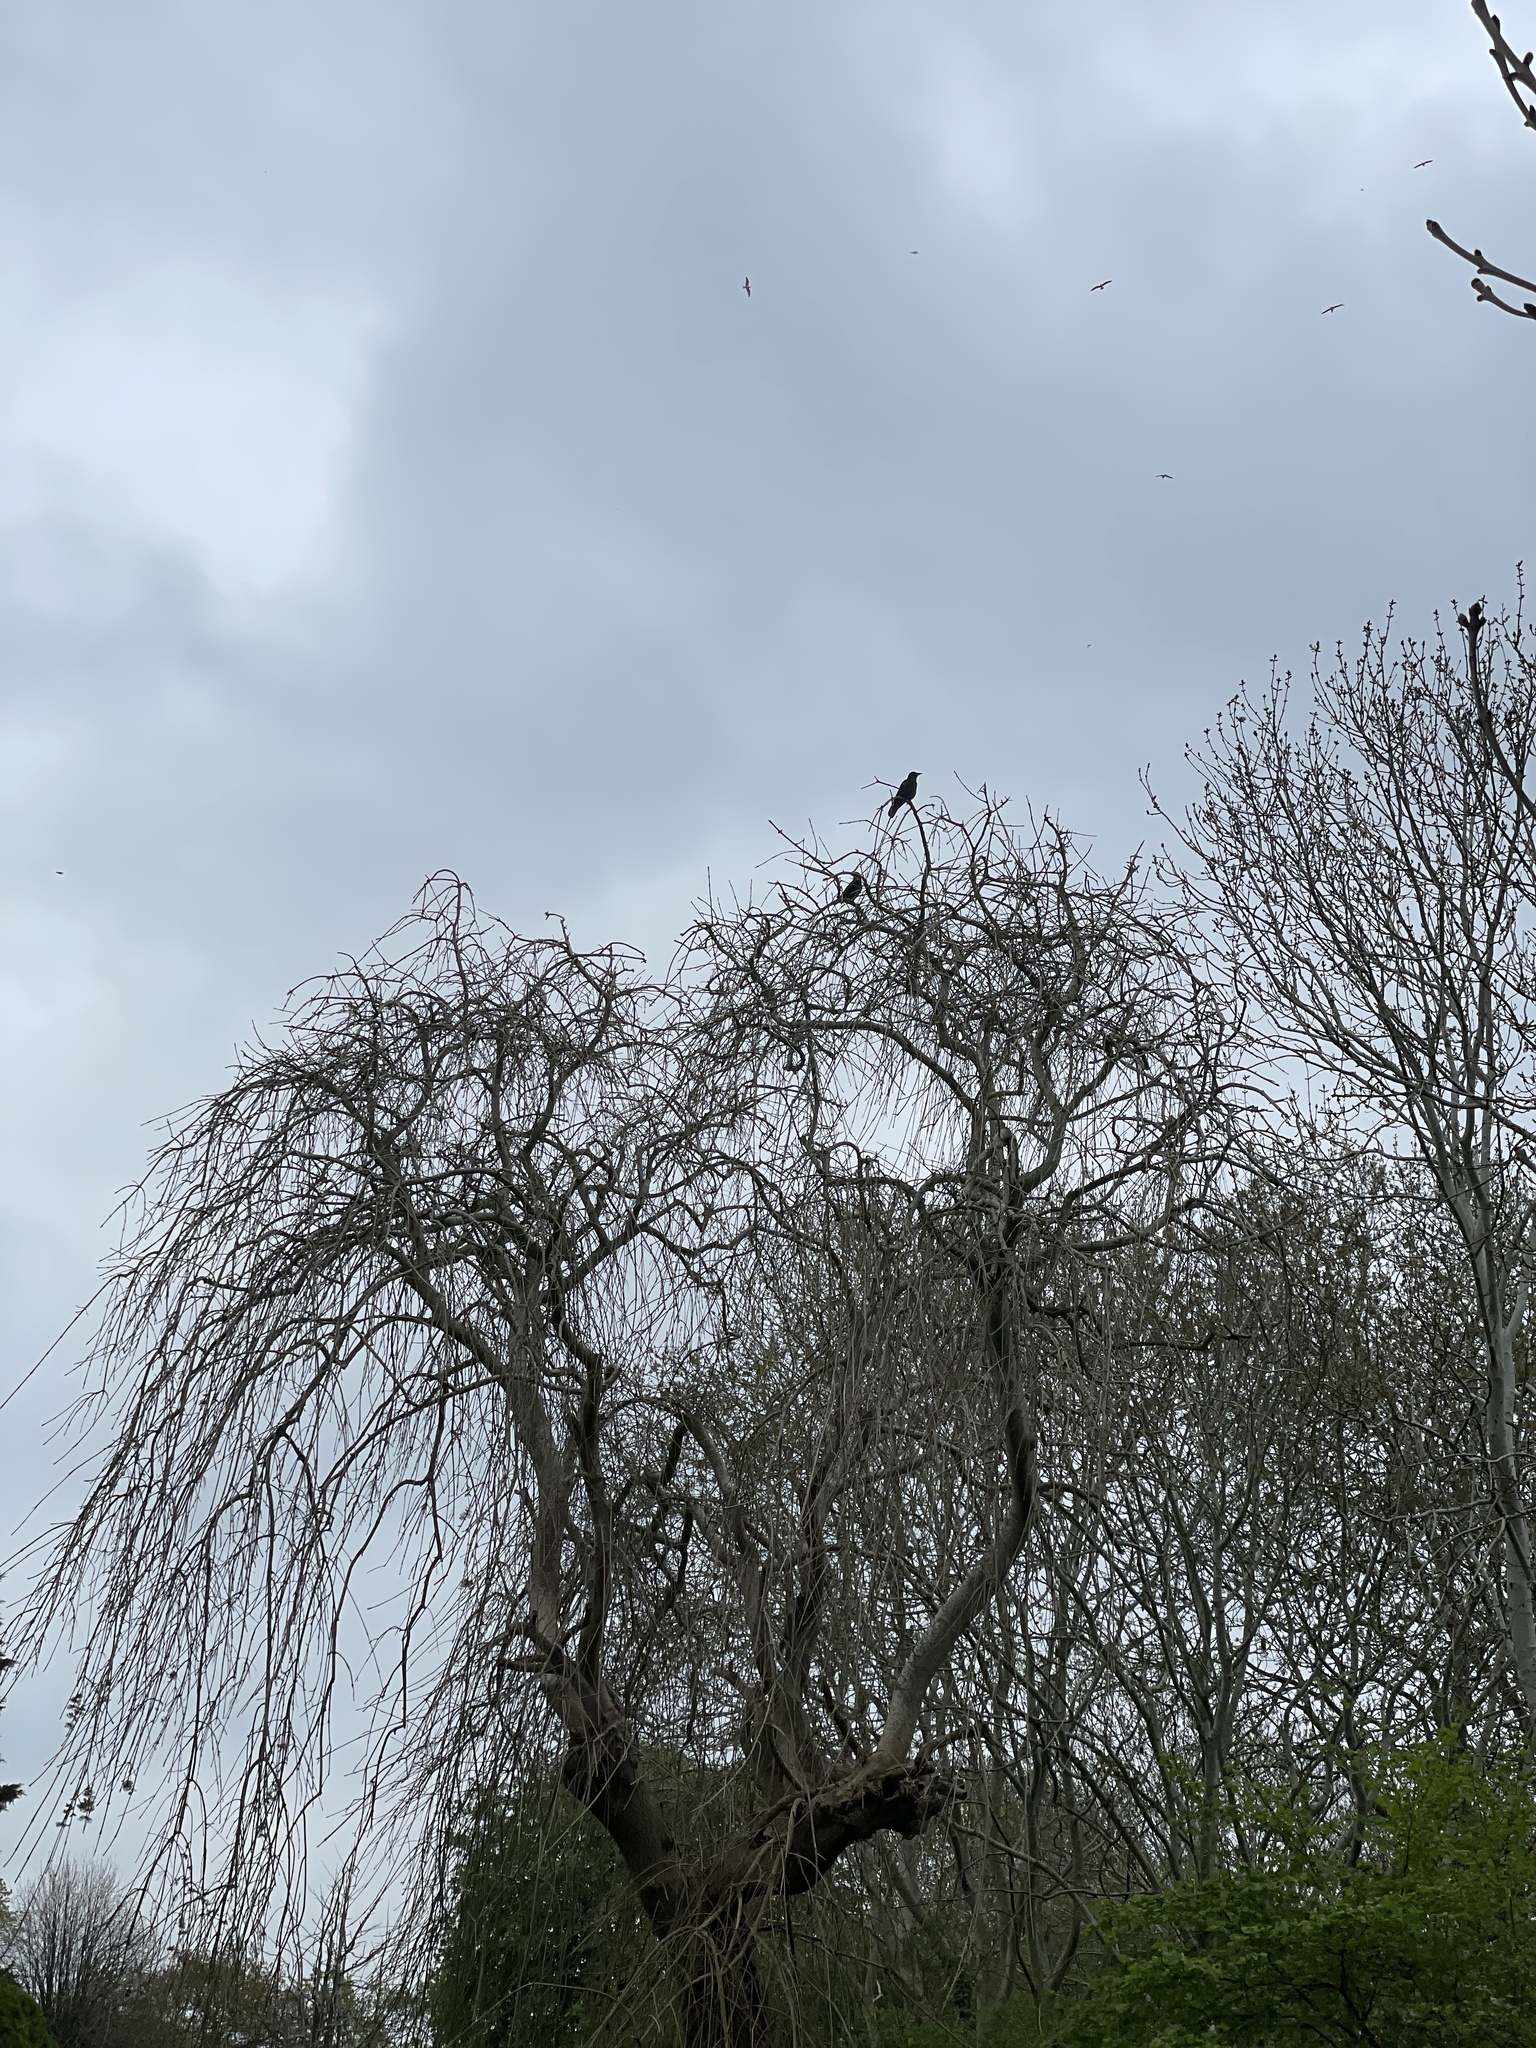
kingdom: Animalia
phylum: Chordata
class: Aves
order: Passeriformes
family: Corvidae
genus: Corvus
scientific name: Corvus corone
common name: Carrion crow
